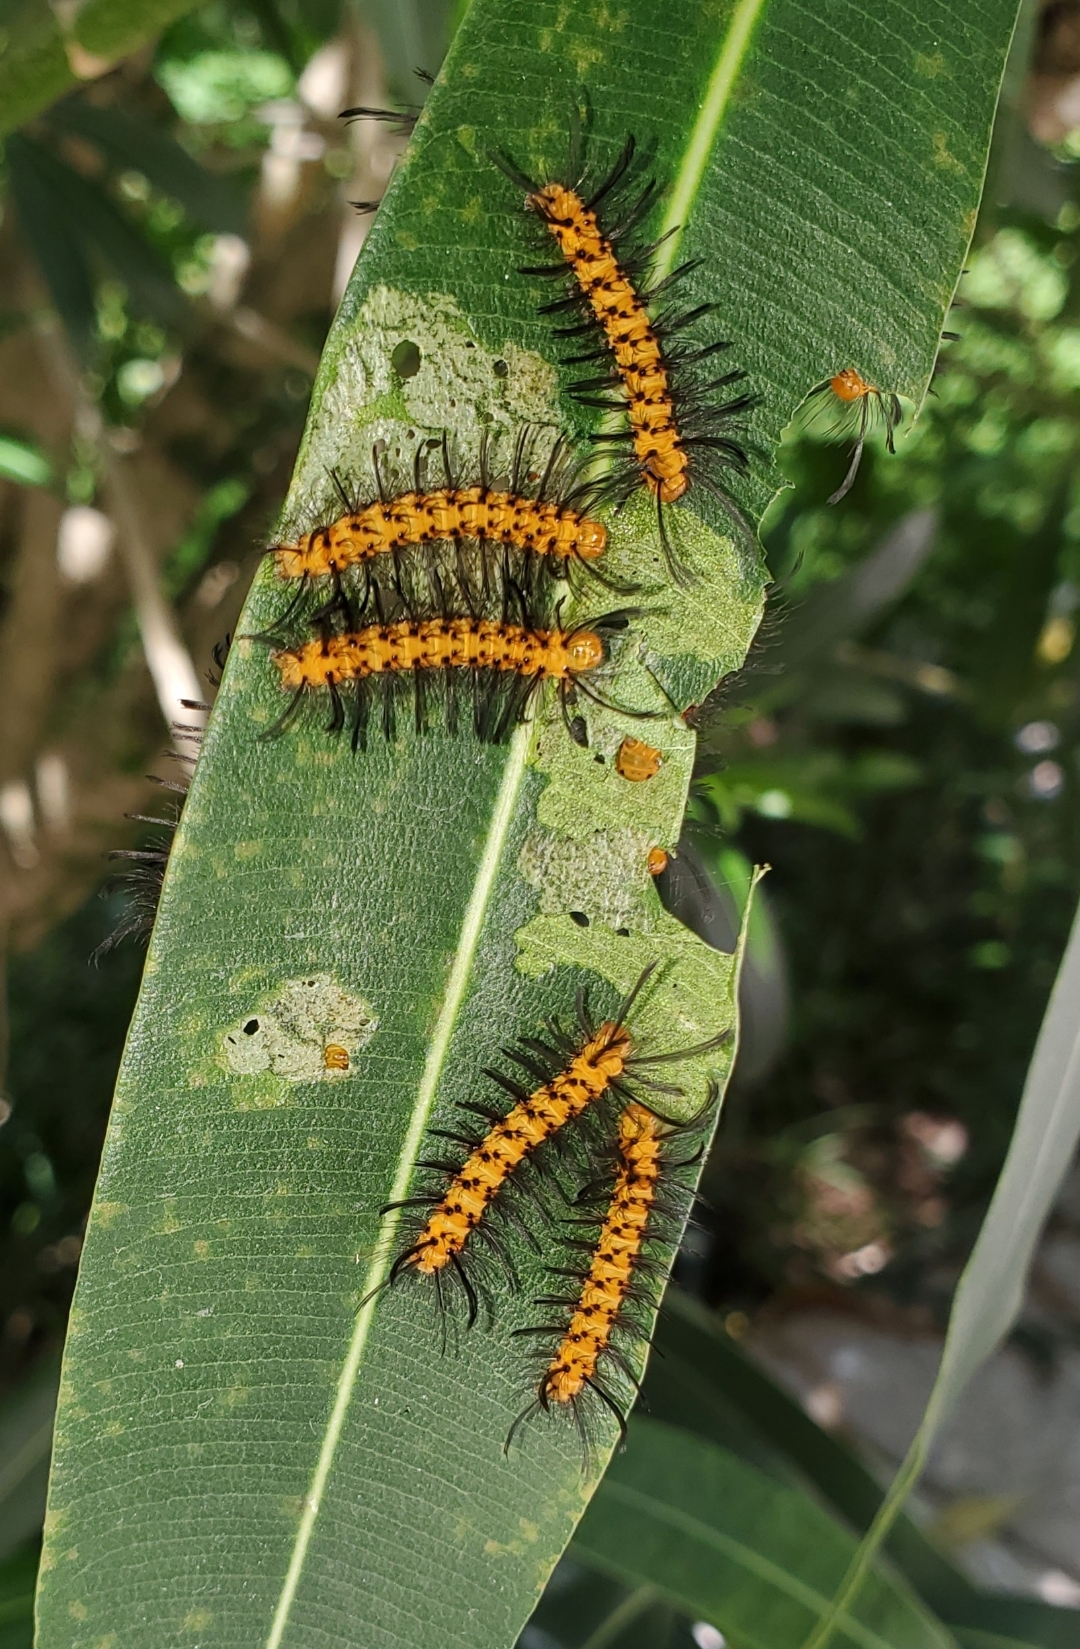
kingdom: Animalia
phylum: Arthropoda
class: Insecta
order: Lepidoptera
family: Erebidae
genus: Syntomeida
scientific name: Syntomeida epilais
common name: Polka-dot wasp moth
